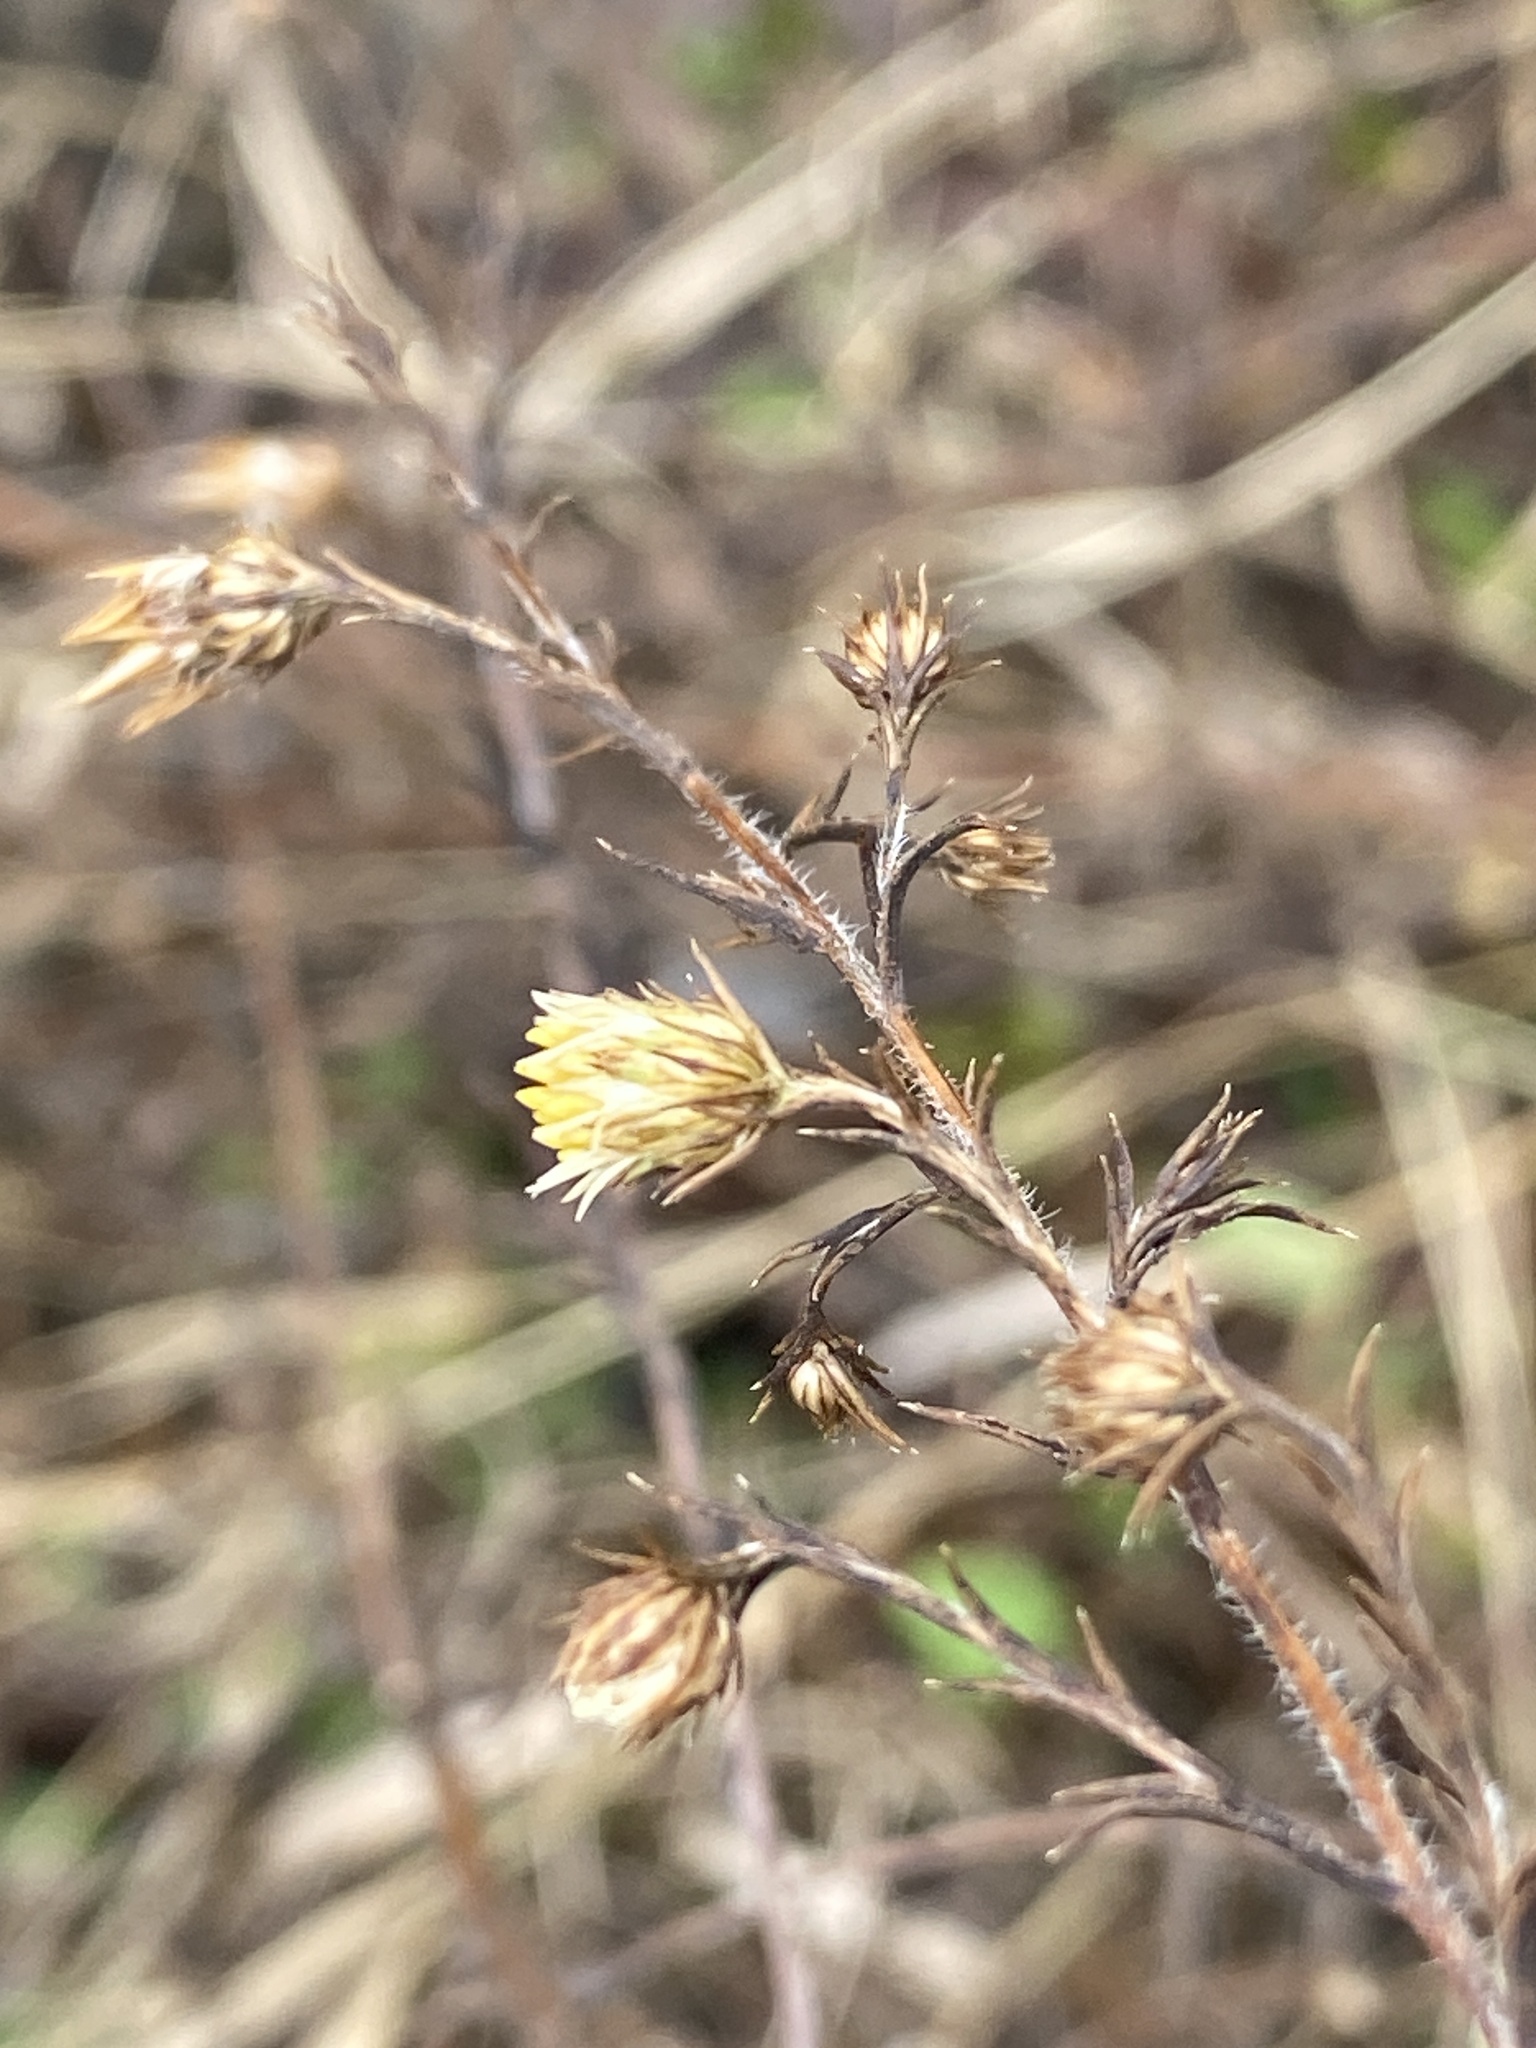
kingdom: Plantae
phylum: Tracheophyta
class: Magnoliopsida
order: Asterales
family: Asteraceae
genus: Symphyotrichum
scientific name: Symphyotrichum pilosum
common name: Awl aster
